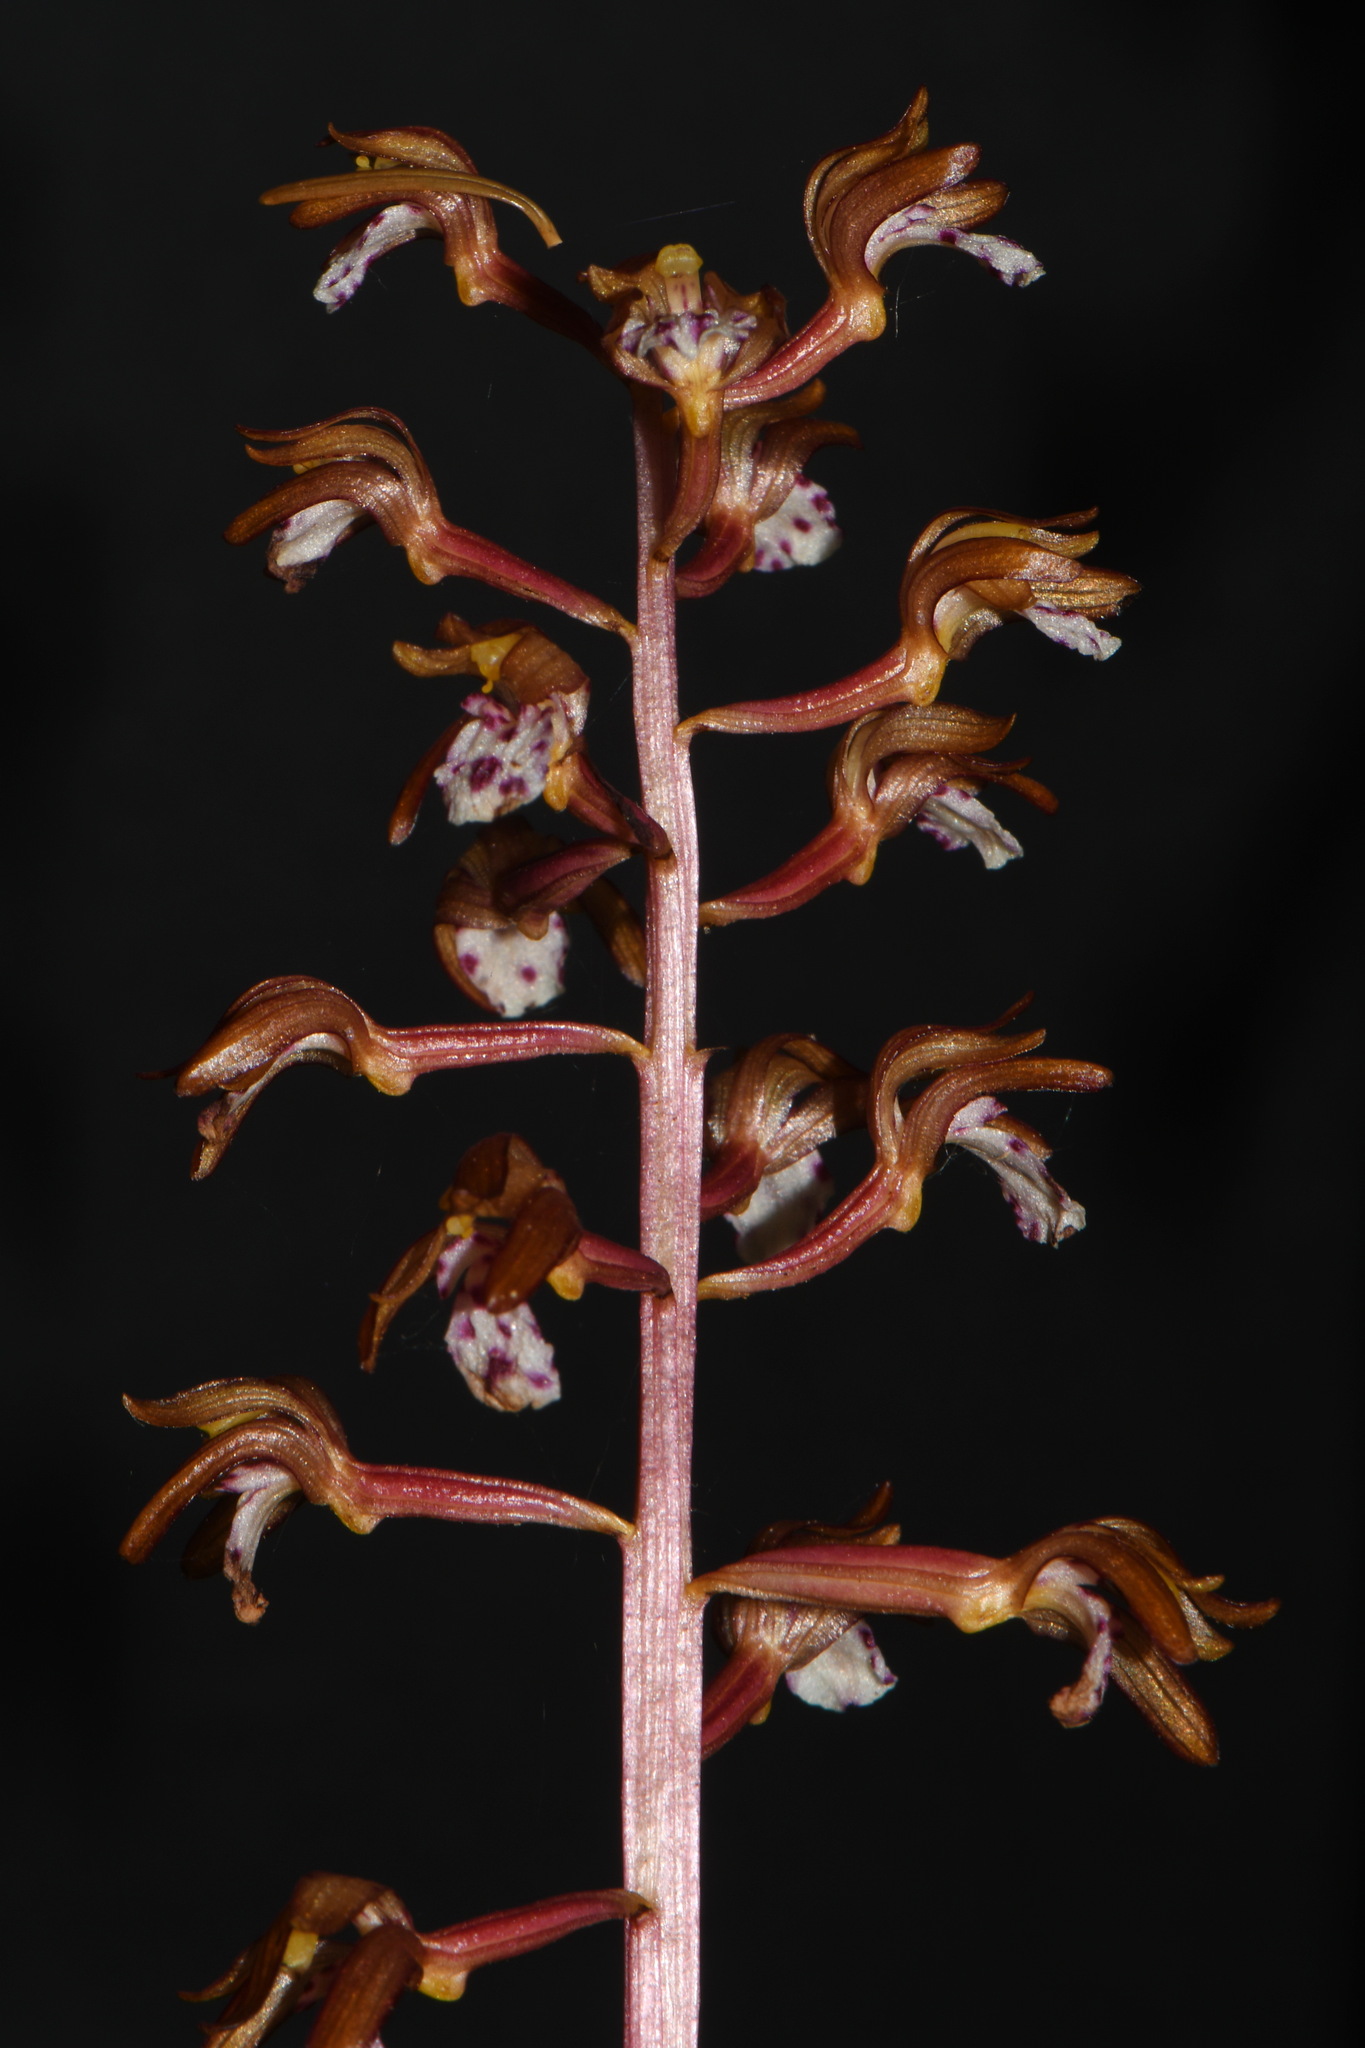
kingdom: Plantae
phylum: Tracheophyta
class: Liliopsida
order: Asparagales
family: Orchidaceae
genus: Corallorhiza
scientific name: Corallorhiza maculata
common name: Spotted coralroot
